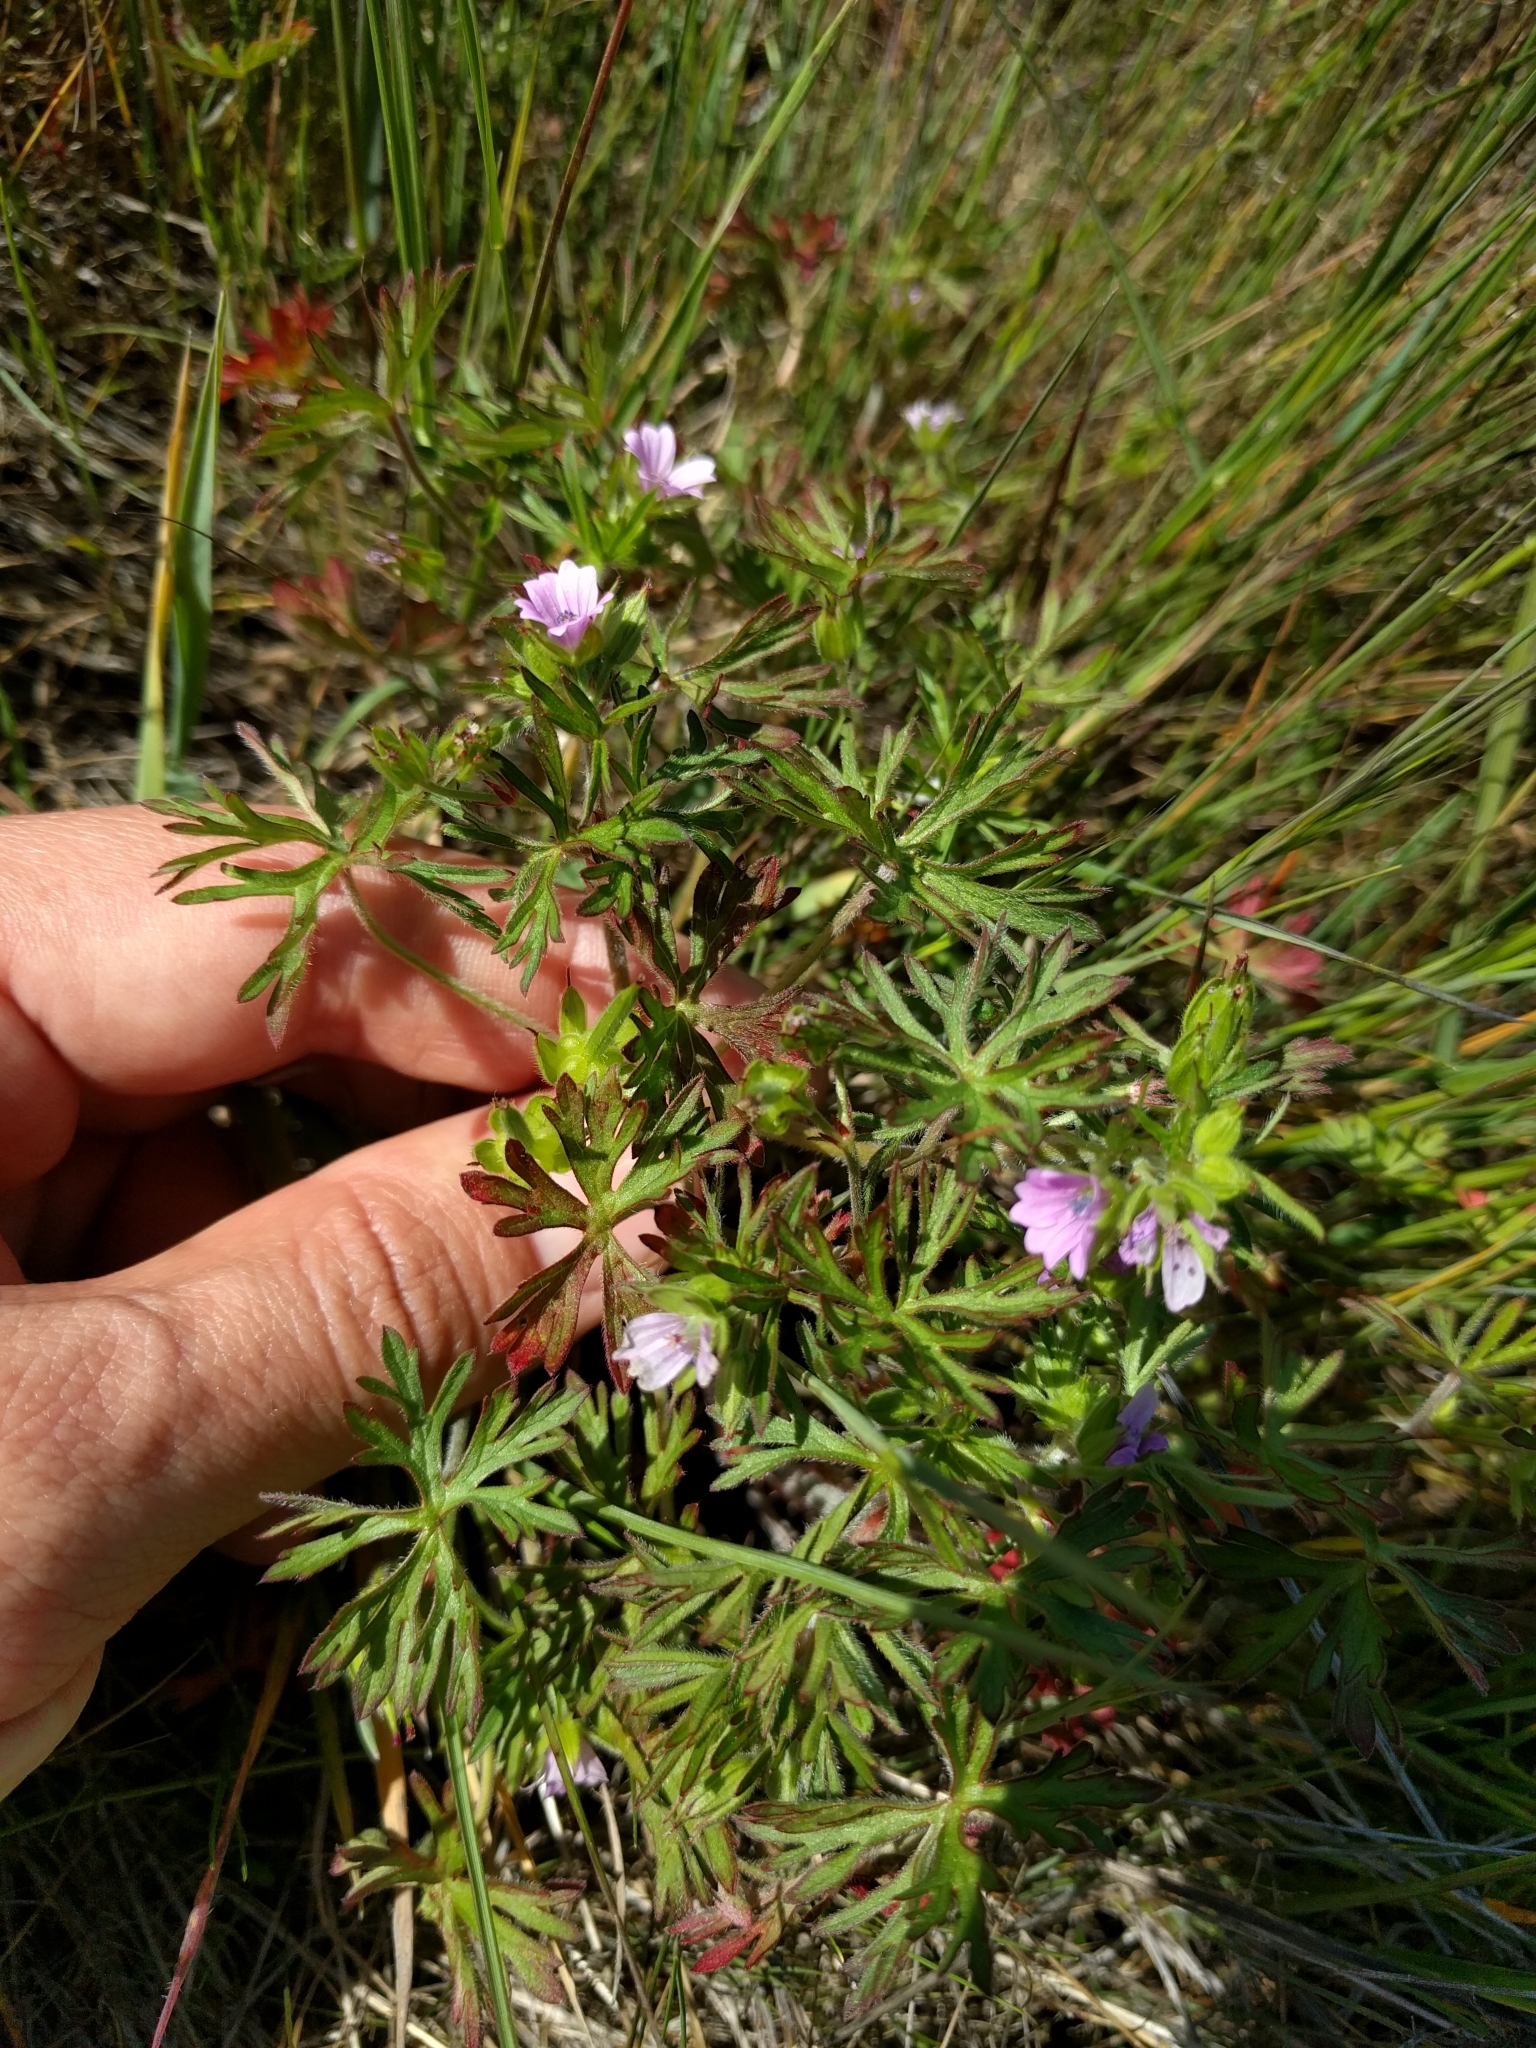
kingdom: Plantae
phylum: Tracheophyta
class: Magnoliopsida
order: Geraniales
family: Geraniaceae
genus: Geranium
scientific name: Geranium dissectum
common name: Cut-leaved crane's-bill
